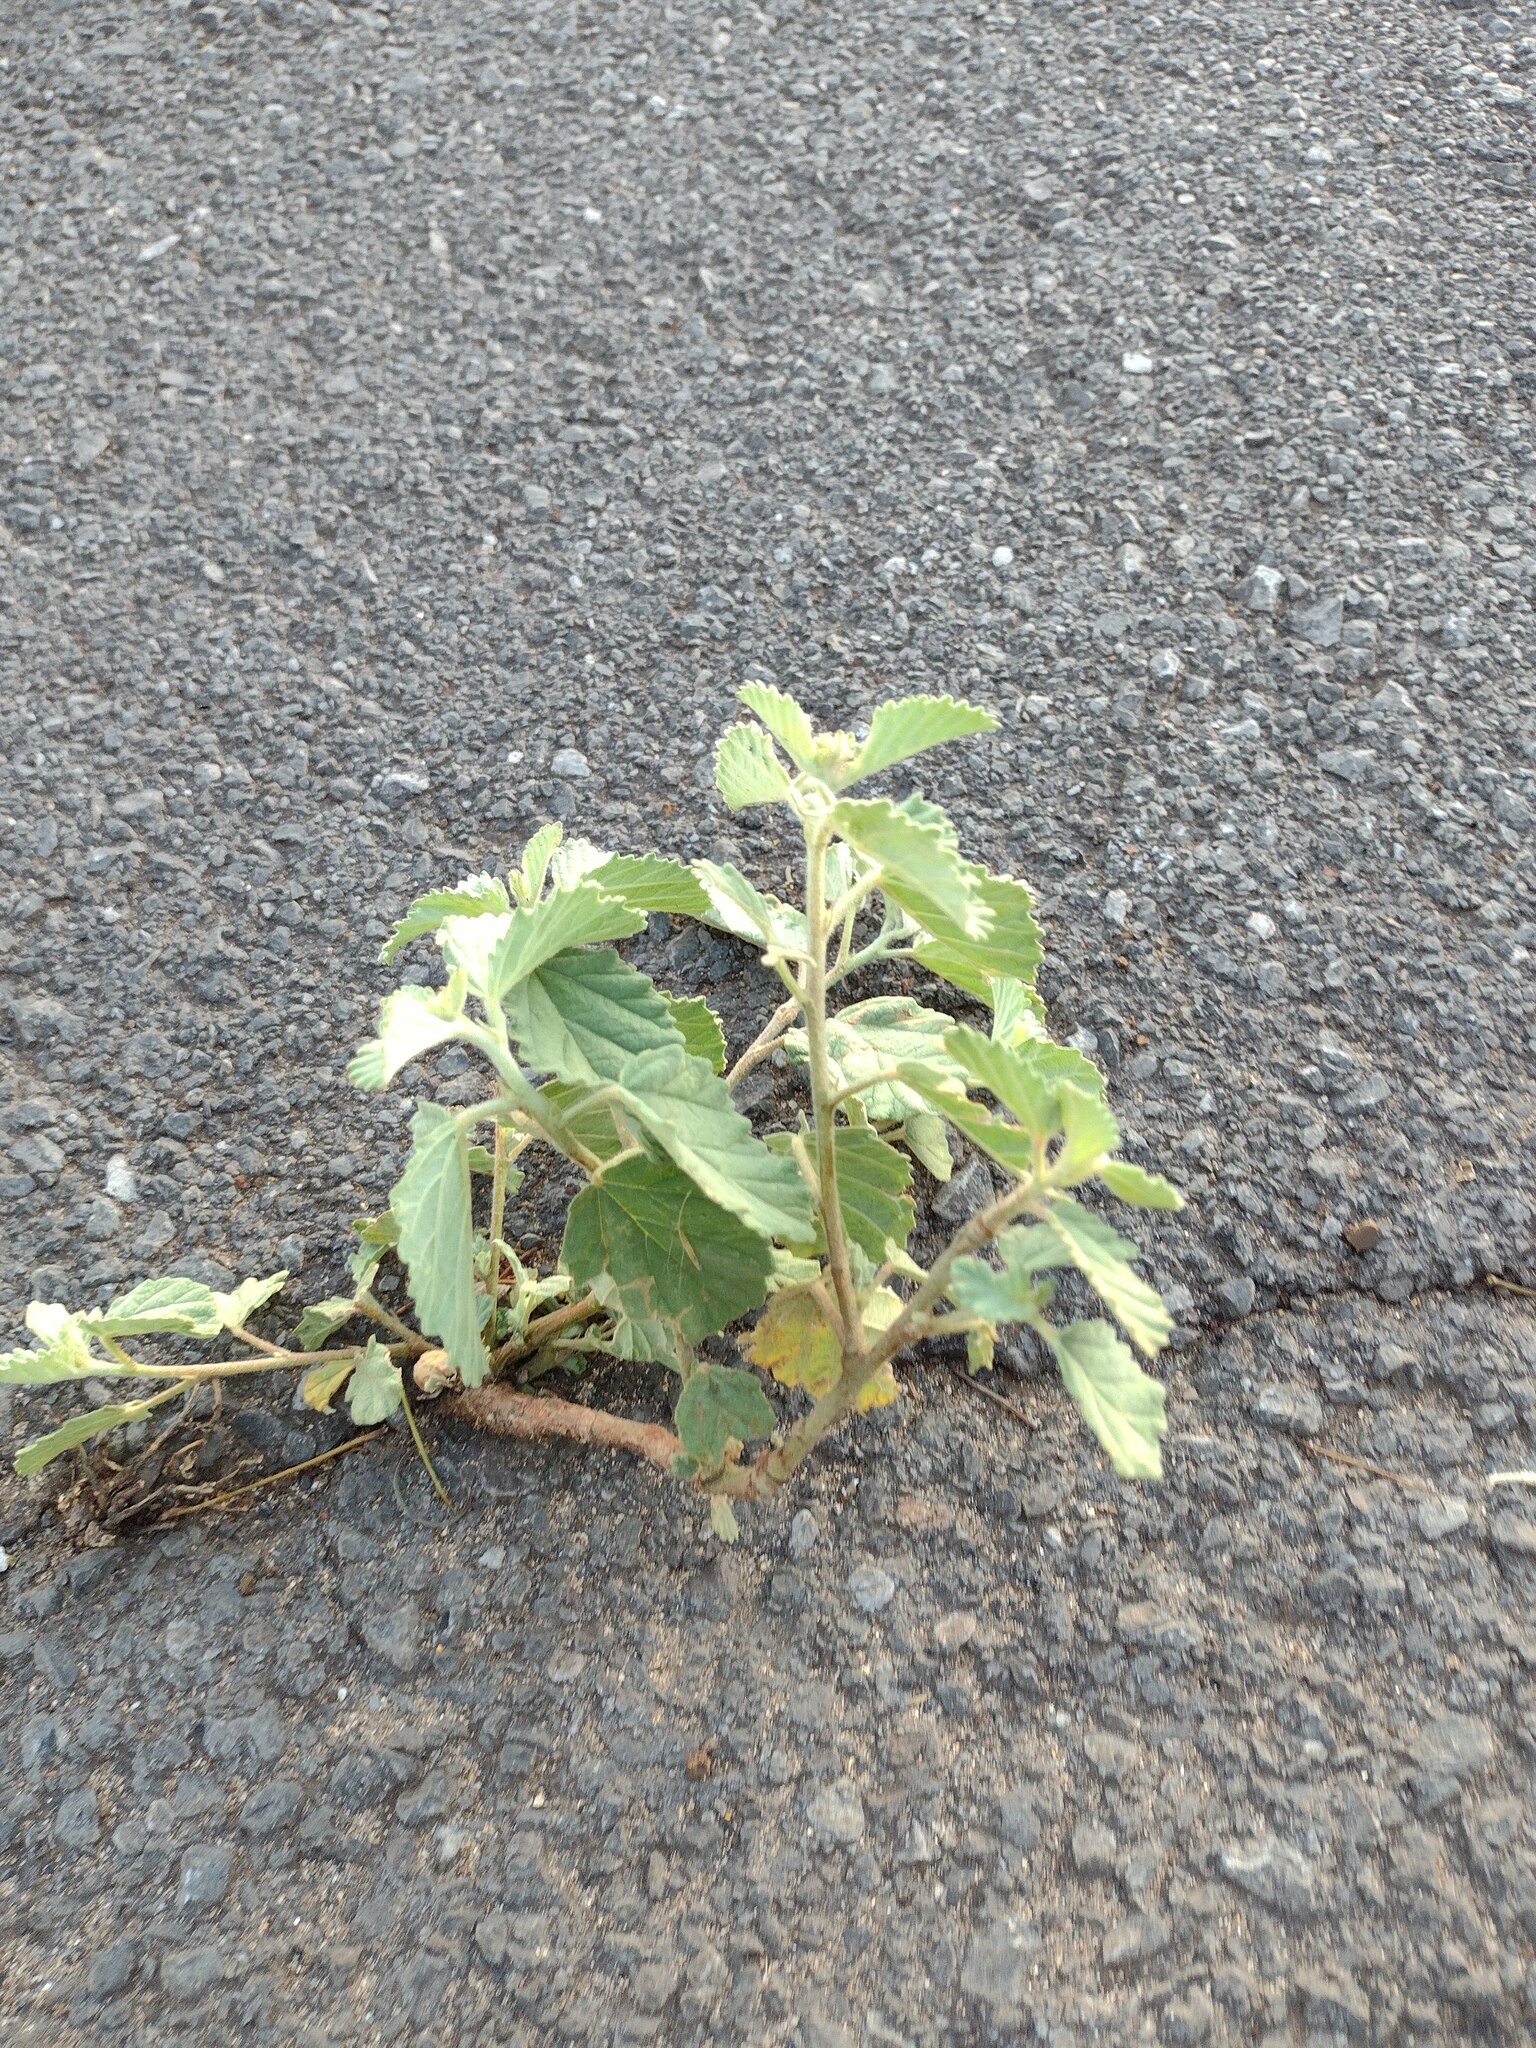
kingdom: Plantae
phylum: Tracheophyta
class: Magnoliopsida
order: Malvales
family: Malvaceae
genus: Waltheria
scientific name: Waltheria indica
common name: Leather-coat
